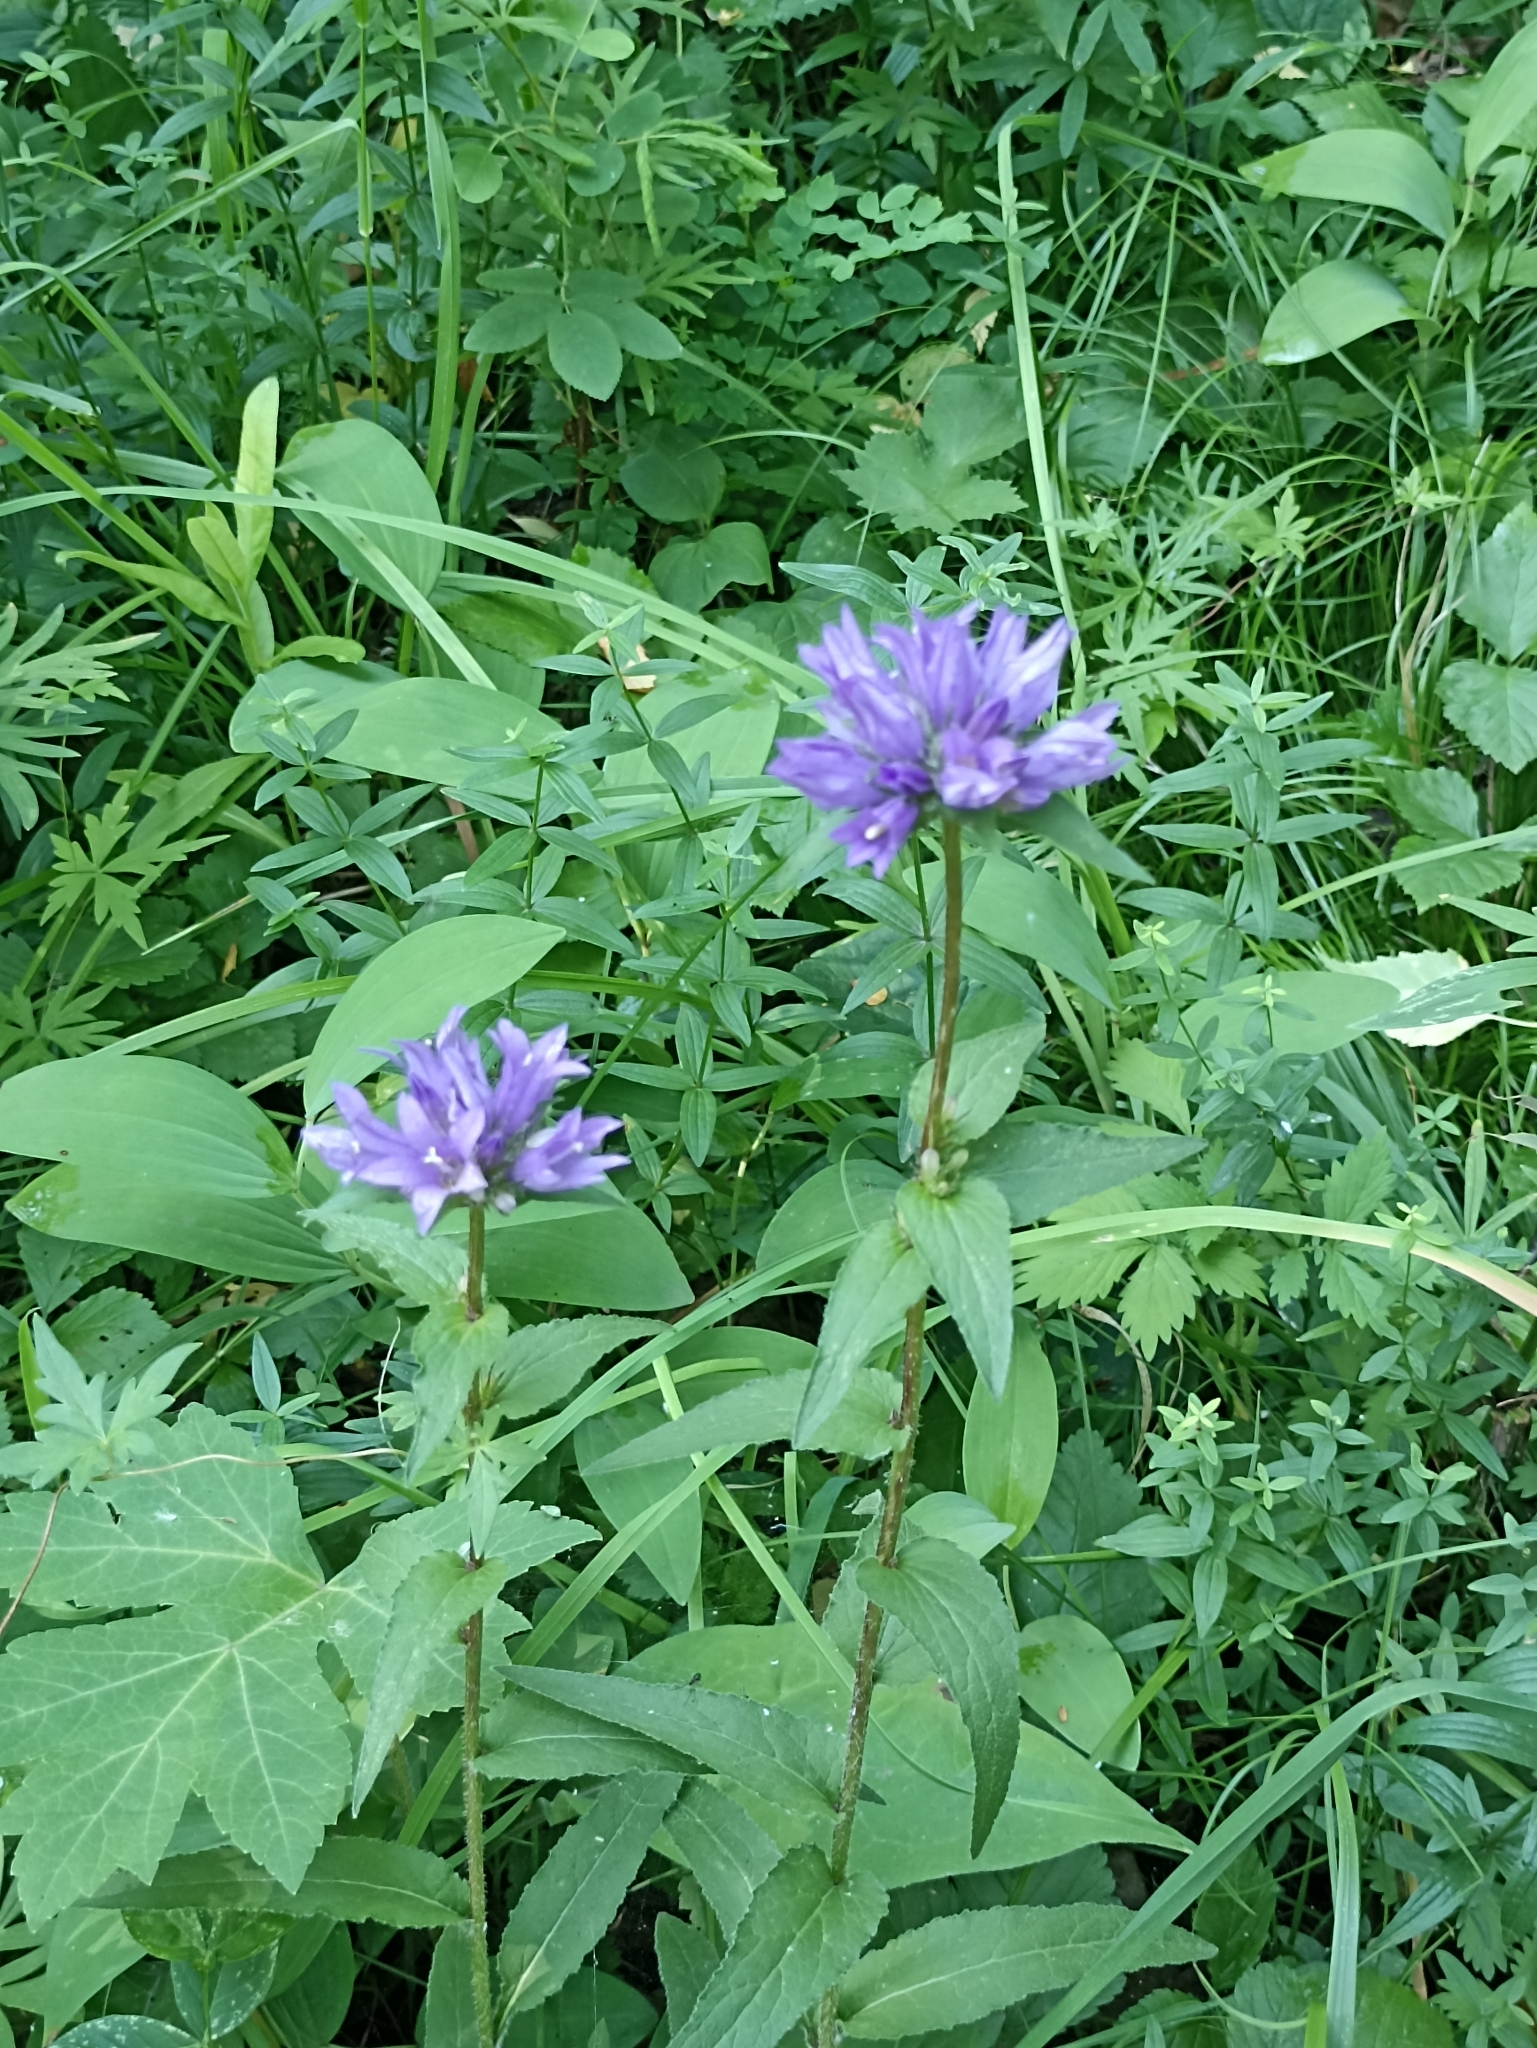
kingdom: Plantae
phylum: Tracheophyta
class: Magnoliopsida
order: Asterales
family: Campanulaceae
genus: Campanula
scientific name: Campanula glomerata
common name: Clustered bellflower
